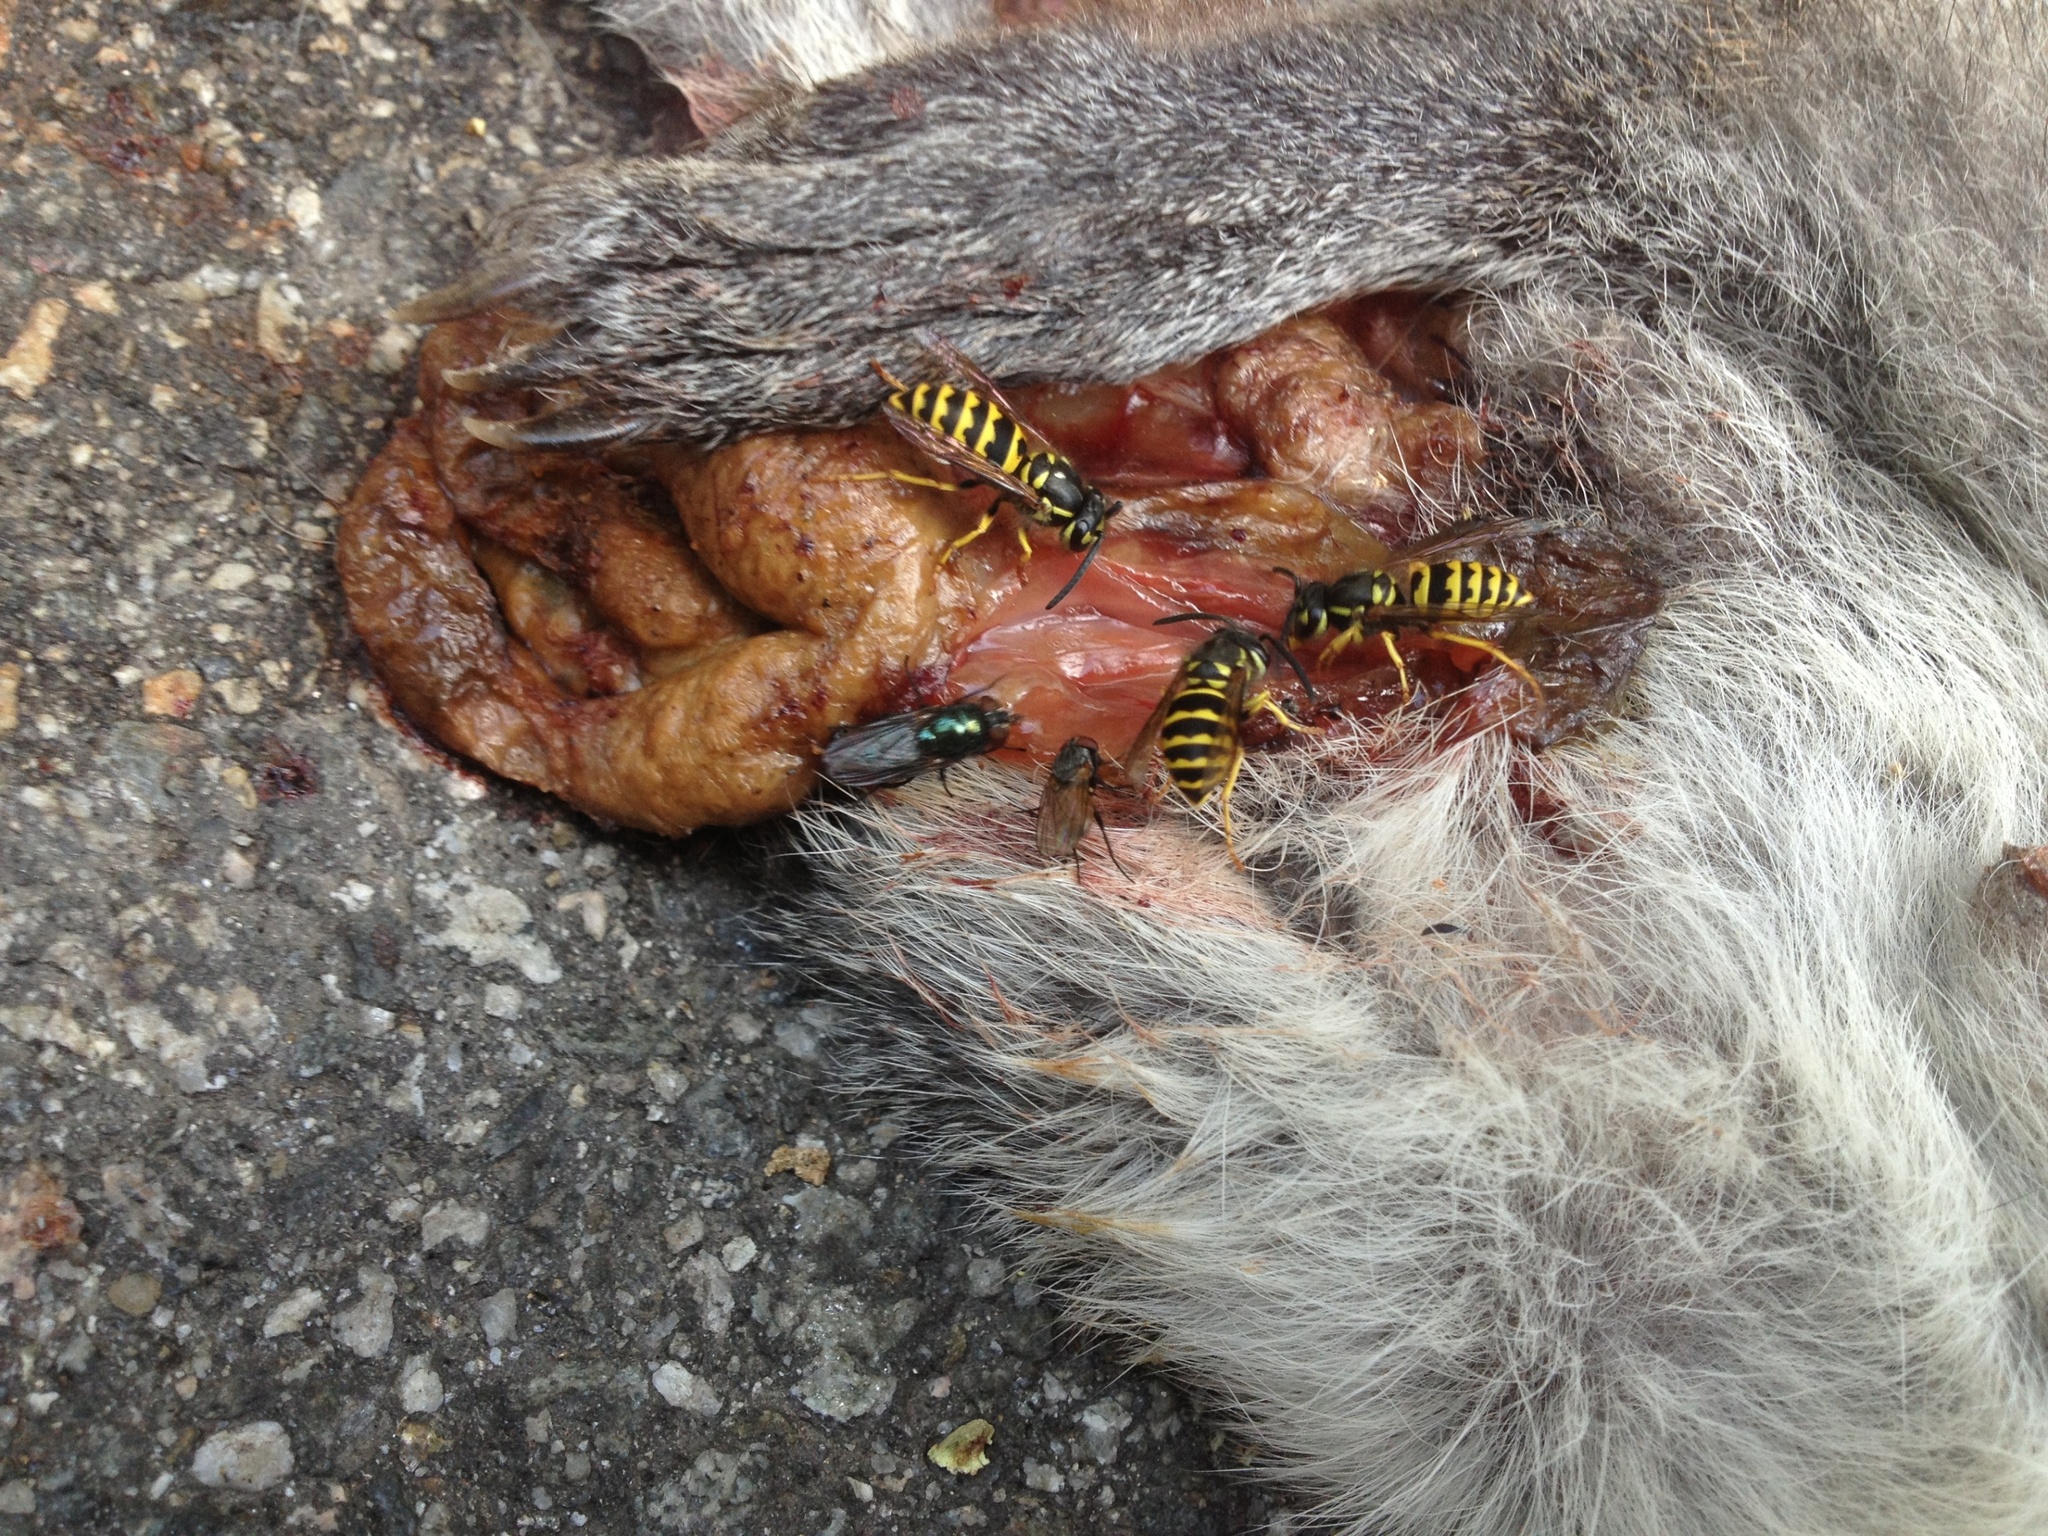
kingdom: Animalia
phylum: Arthropoda
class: Insecta
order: Hymenoptera
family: Vespidae
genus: Vespula
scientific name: Vespula alascensis
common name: Alaska yellowjacket
